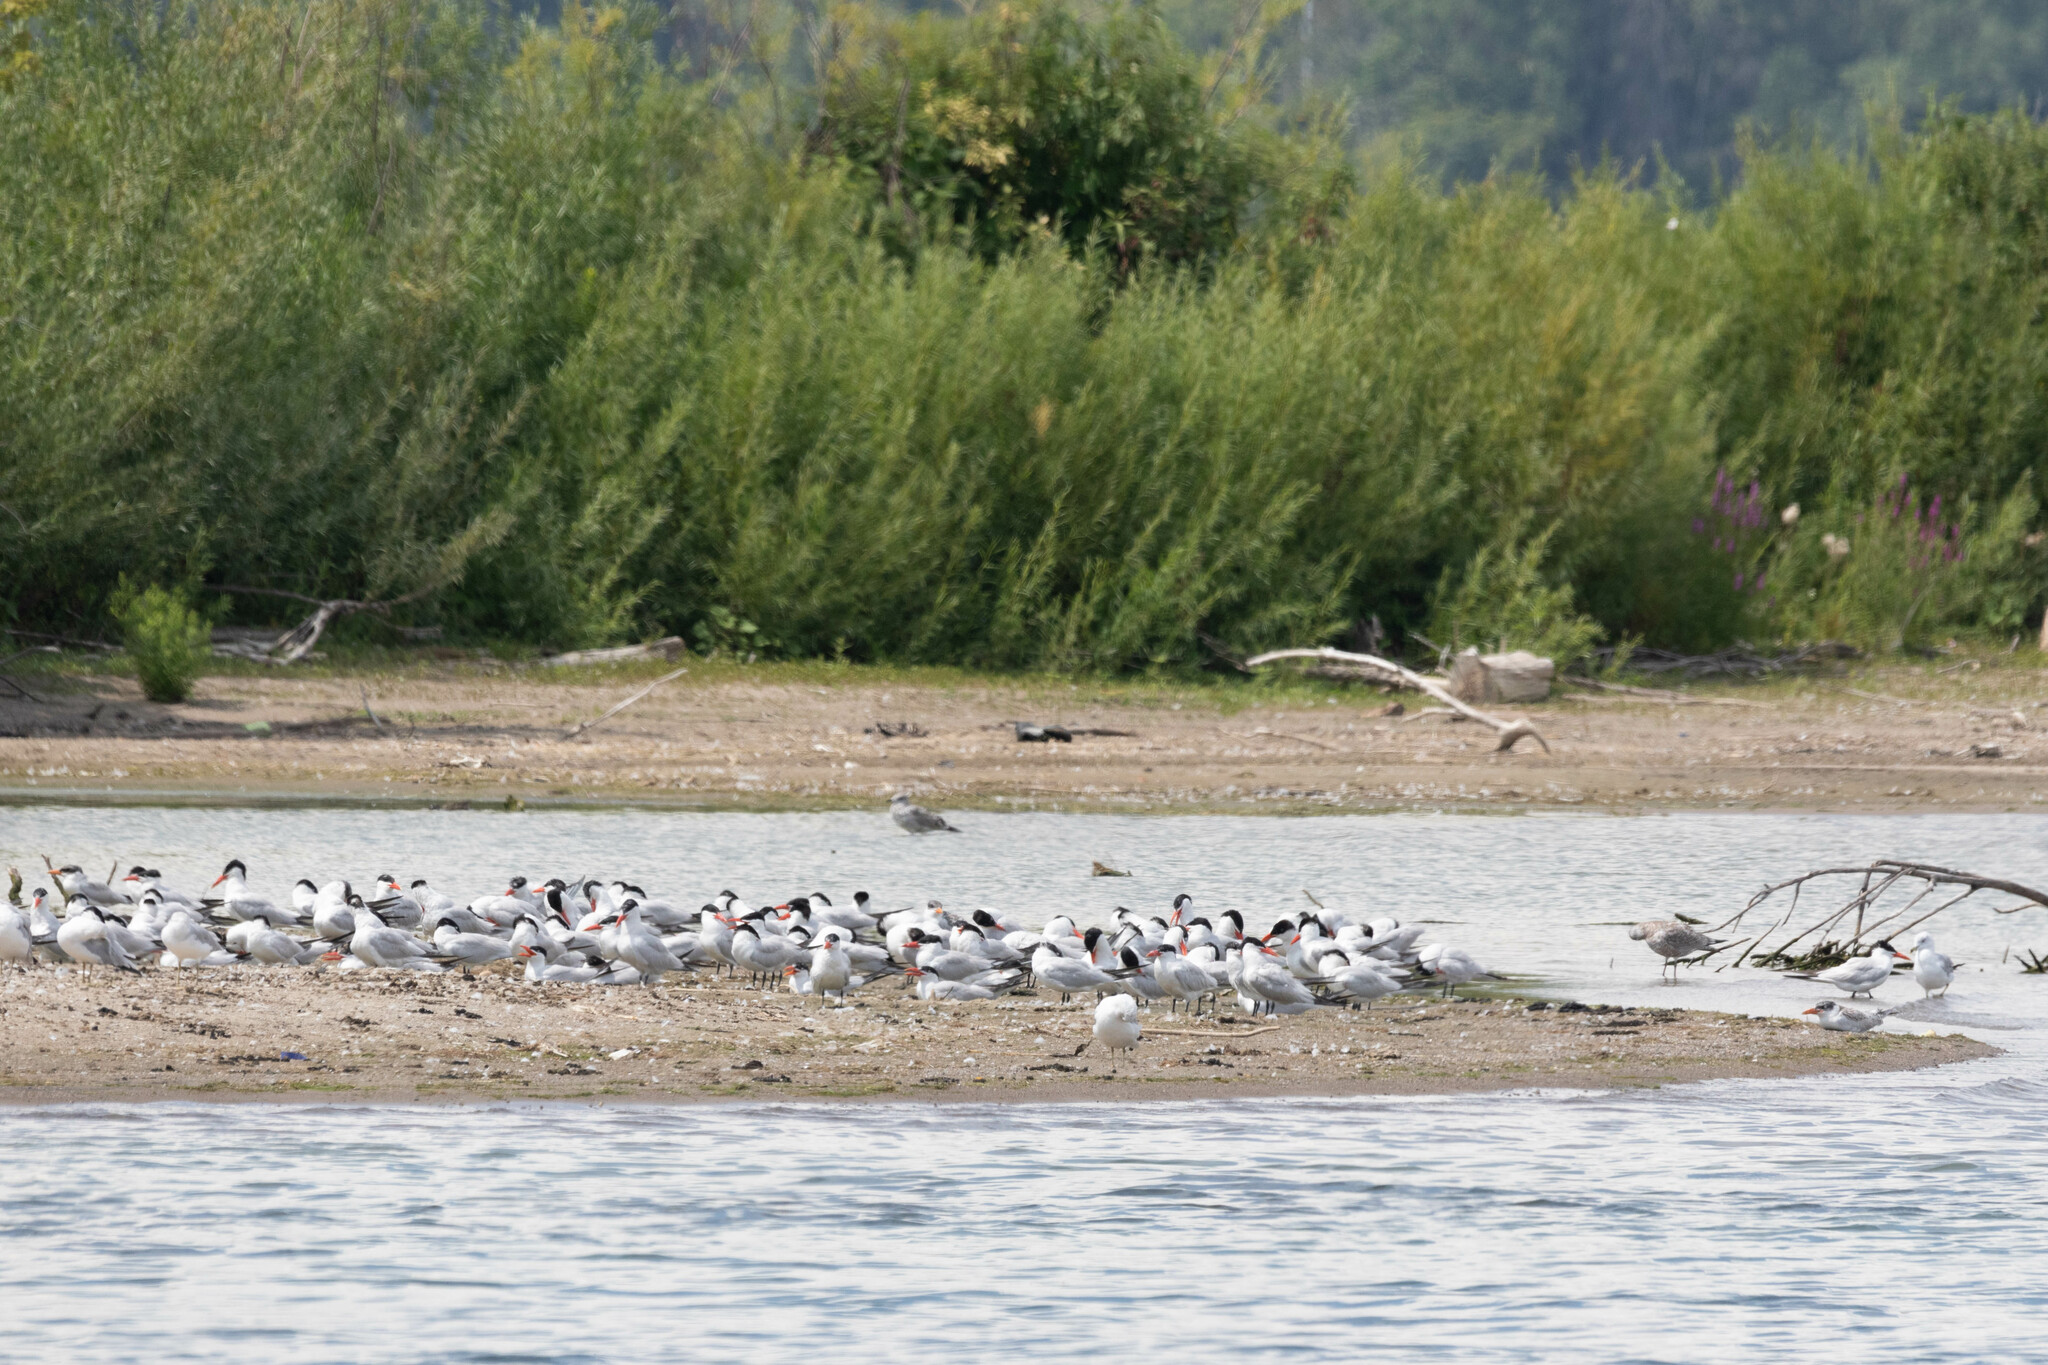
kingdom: Animalia
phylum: Chordata
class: Aves
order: Charadriiformes
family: Laridae
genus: Hydroprogne
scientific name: Hydroprogne caspia
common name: Caspian tern
